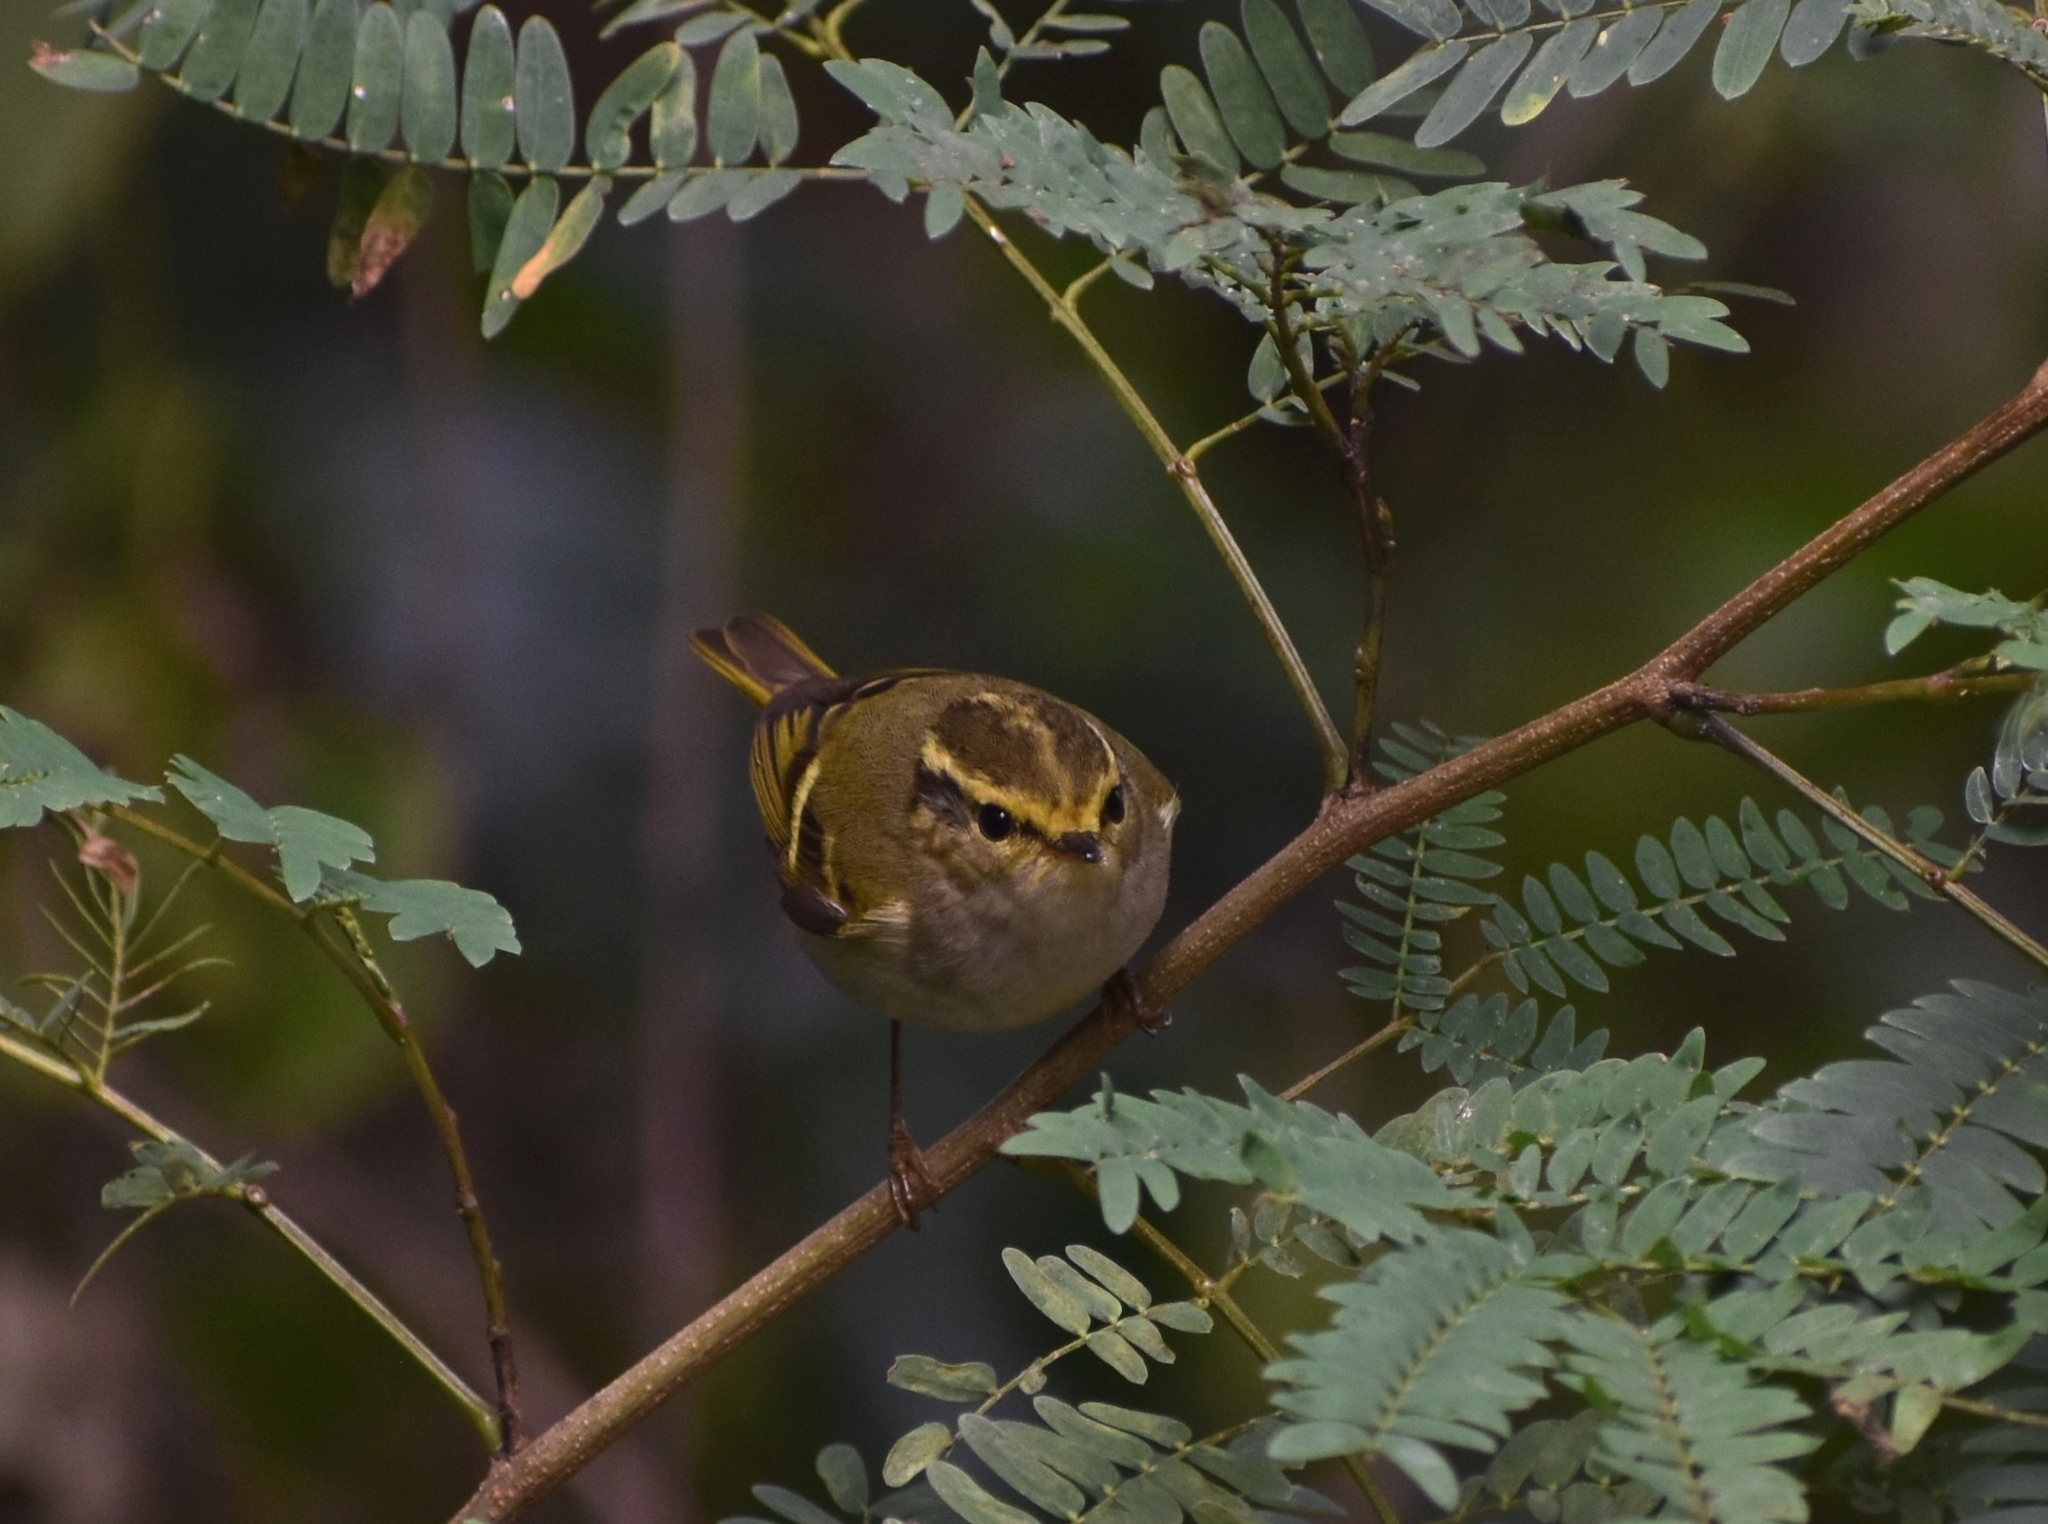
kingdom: Animalia
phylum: Chordata
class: Aves
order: Passeriformes
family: Phylloscopidae
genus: Phylloscopus
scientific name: Phylloscopus proregulus
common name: Pallas's leaf warbler
